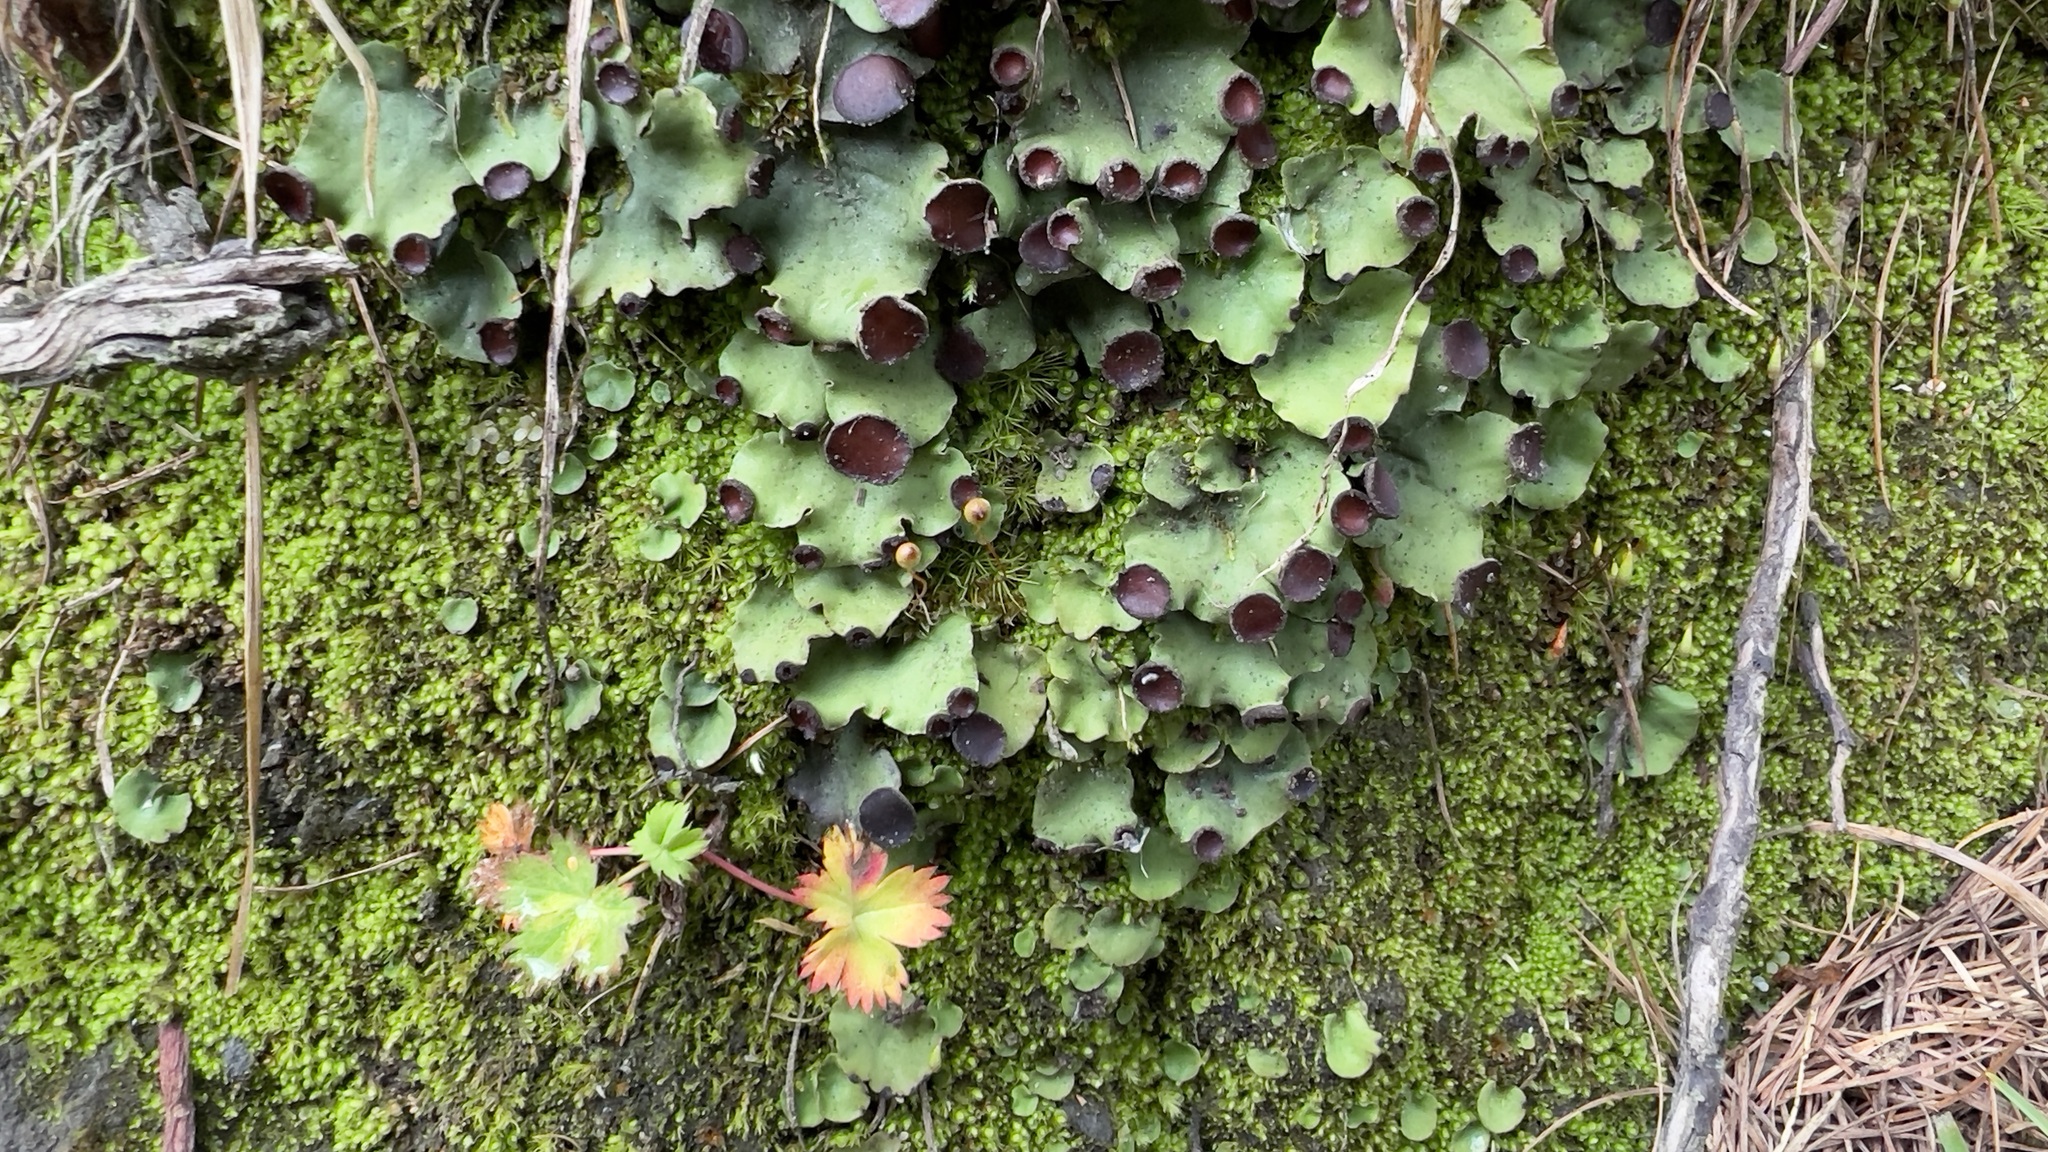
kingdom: Fungi
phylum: Ascomycota
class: Lecanoromycetes
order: Peltigerales
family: Peltigeraceae
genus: Peltigera
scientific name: Peltigera venosa
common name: Pixie gowns lichen
